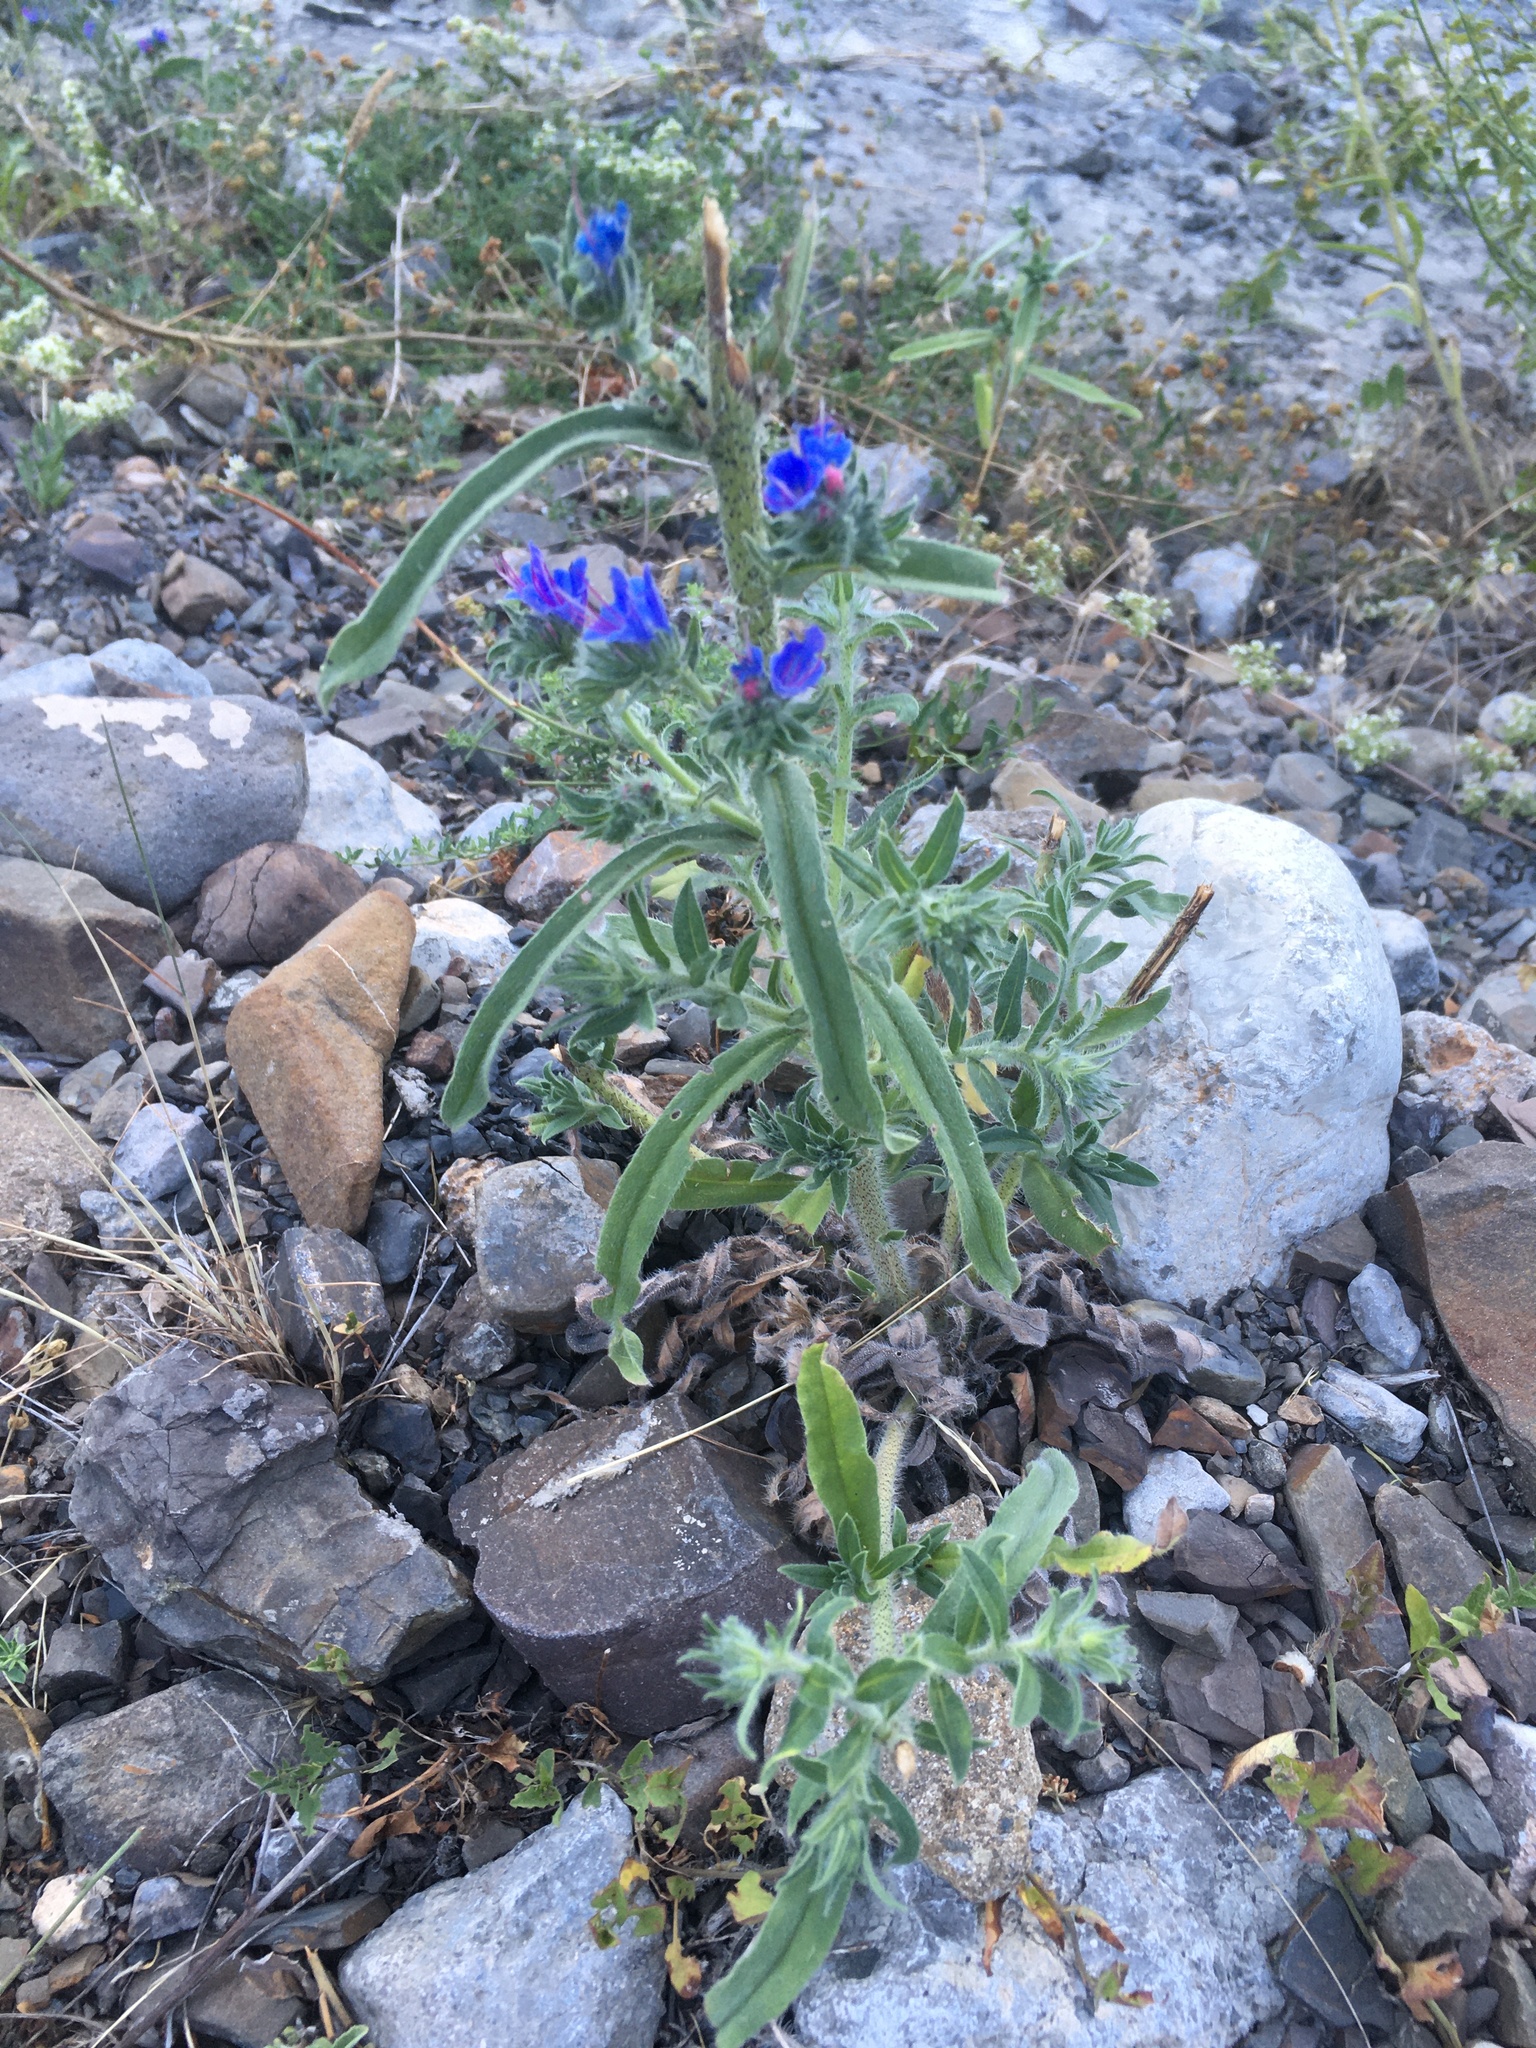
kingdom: Plantae
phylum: Tracheophyta
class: Magnoliopsida
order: Boraginales
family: Boraginaceae
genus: Echium
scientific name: Echium vulgare
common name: Common viper's bugloss
